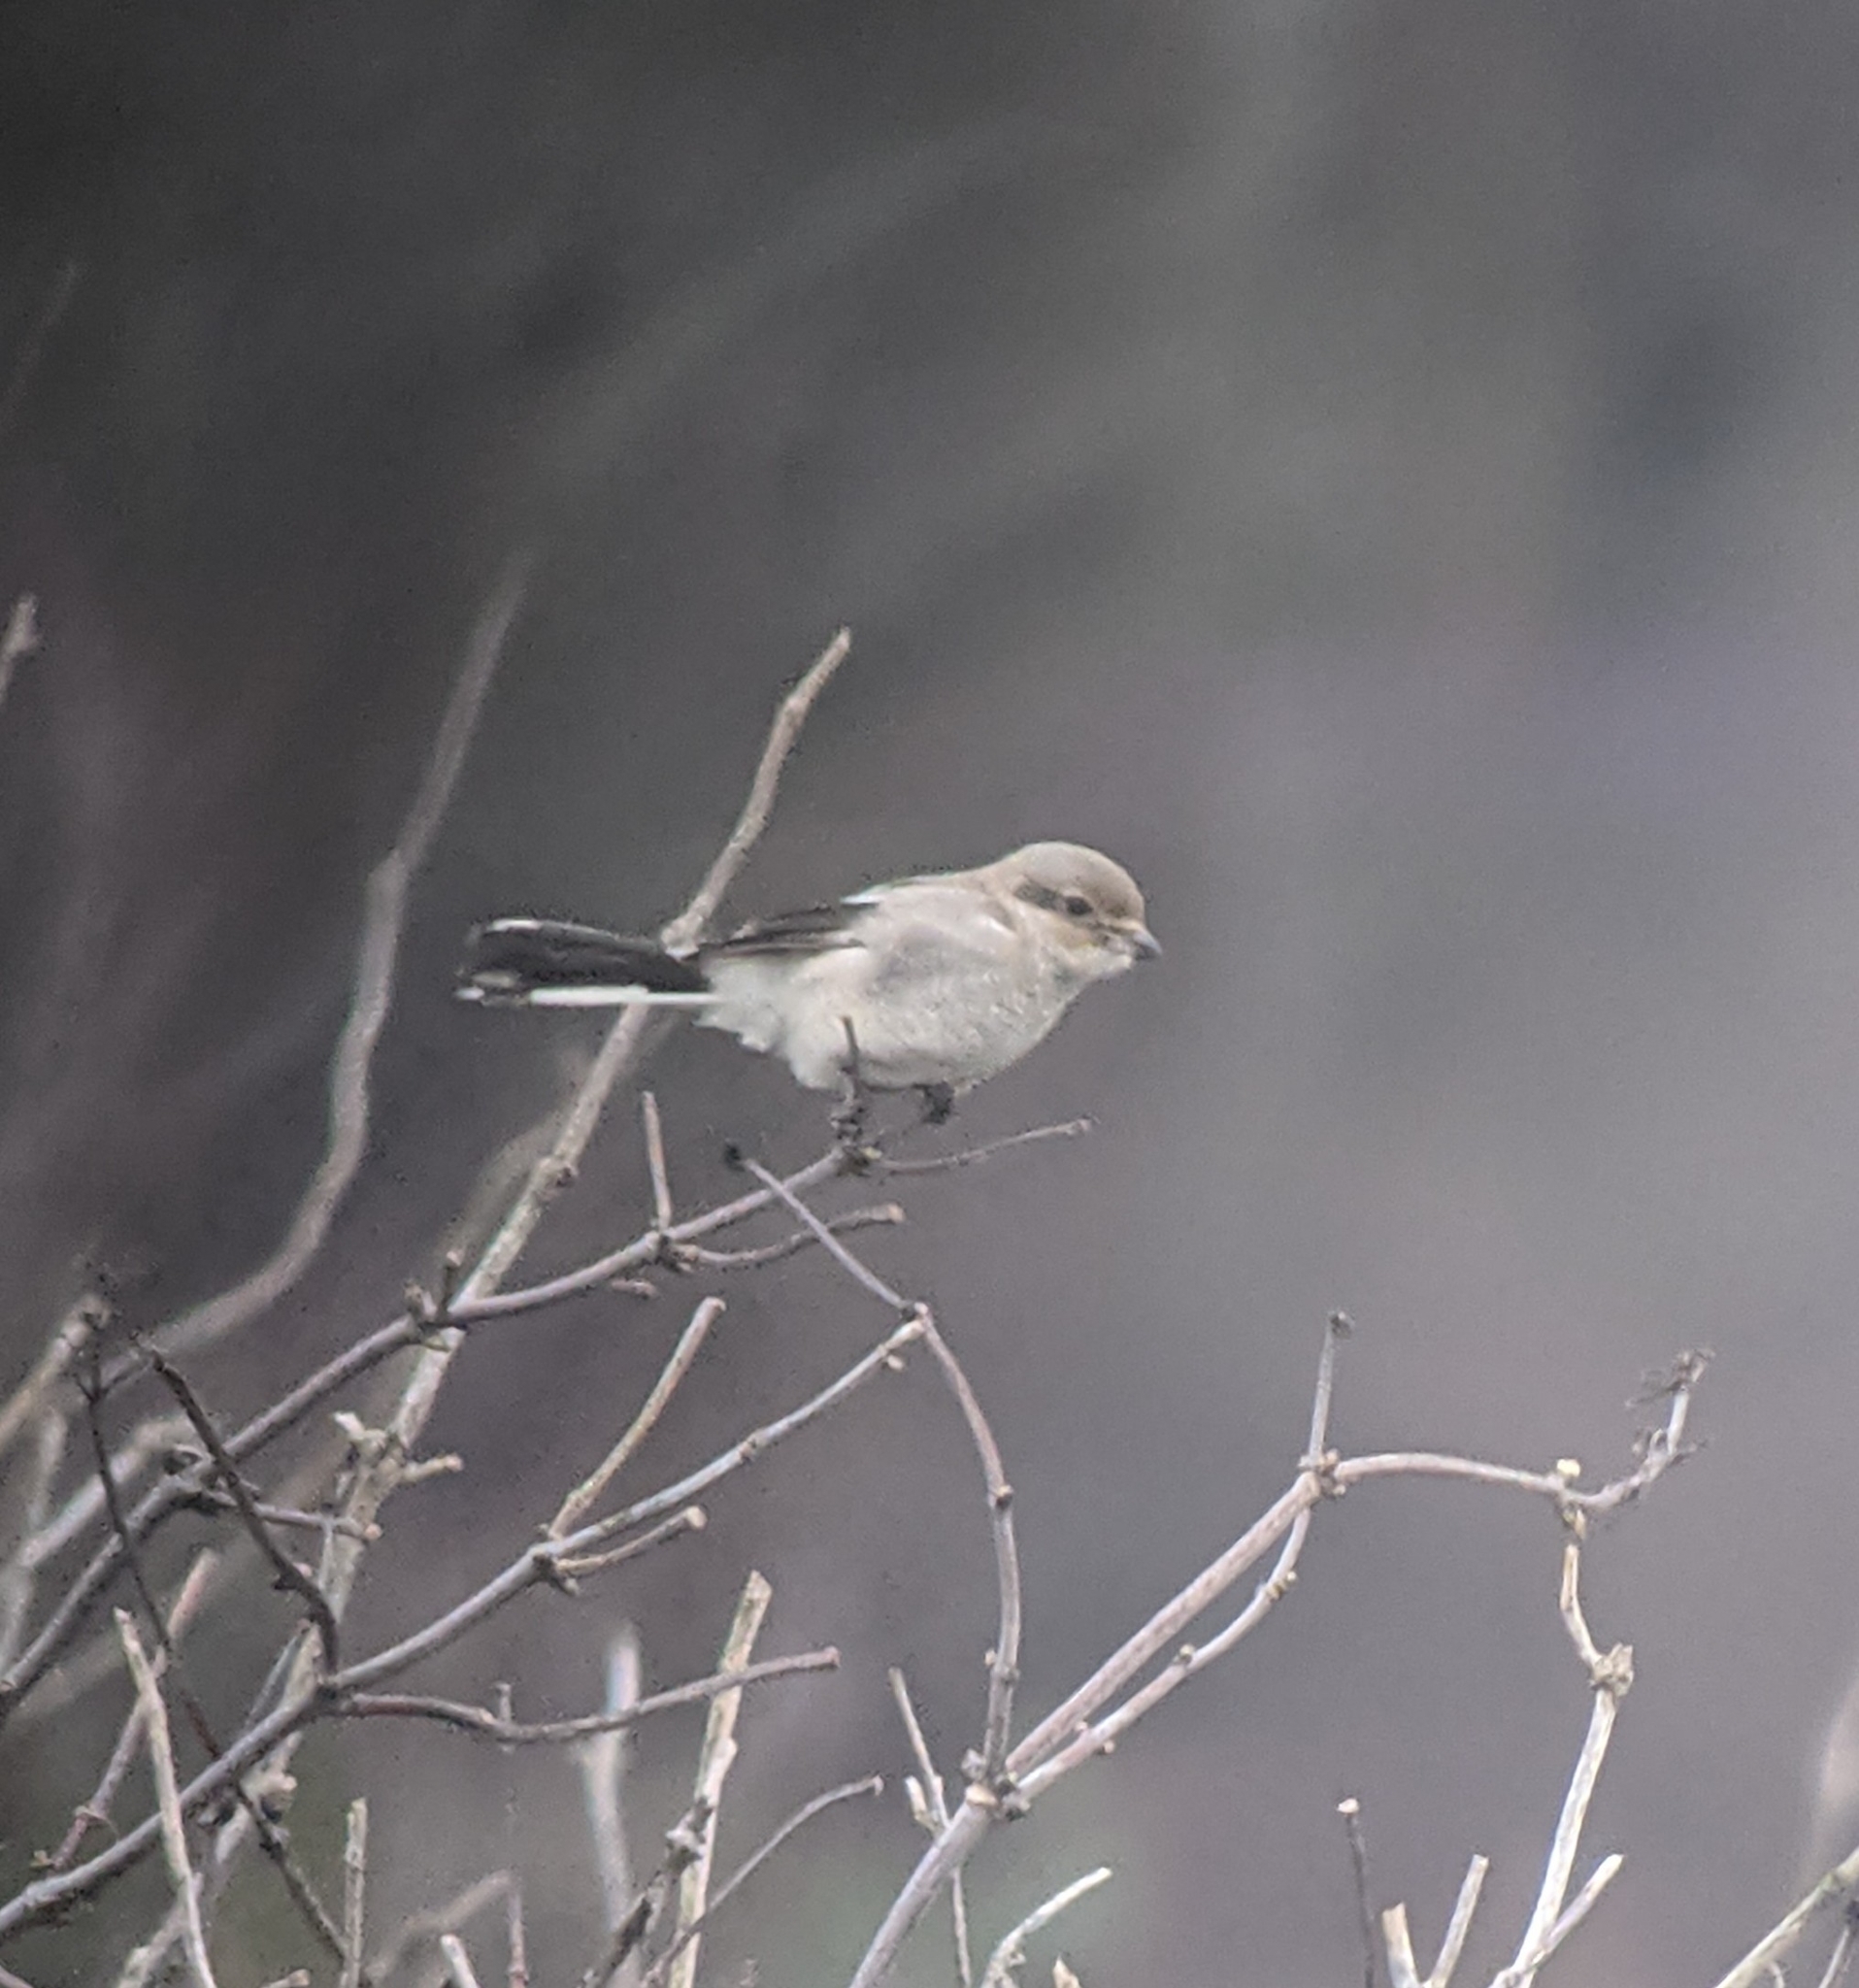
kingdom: Animalia
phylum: Chordata
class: Aves
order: Passeriformes
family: Laniidae
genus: Lanius
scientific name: Lanius borealis
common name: Northern shrike
